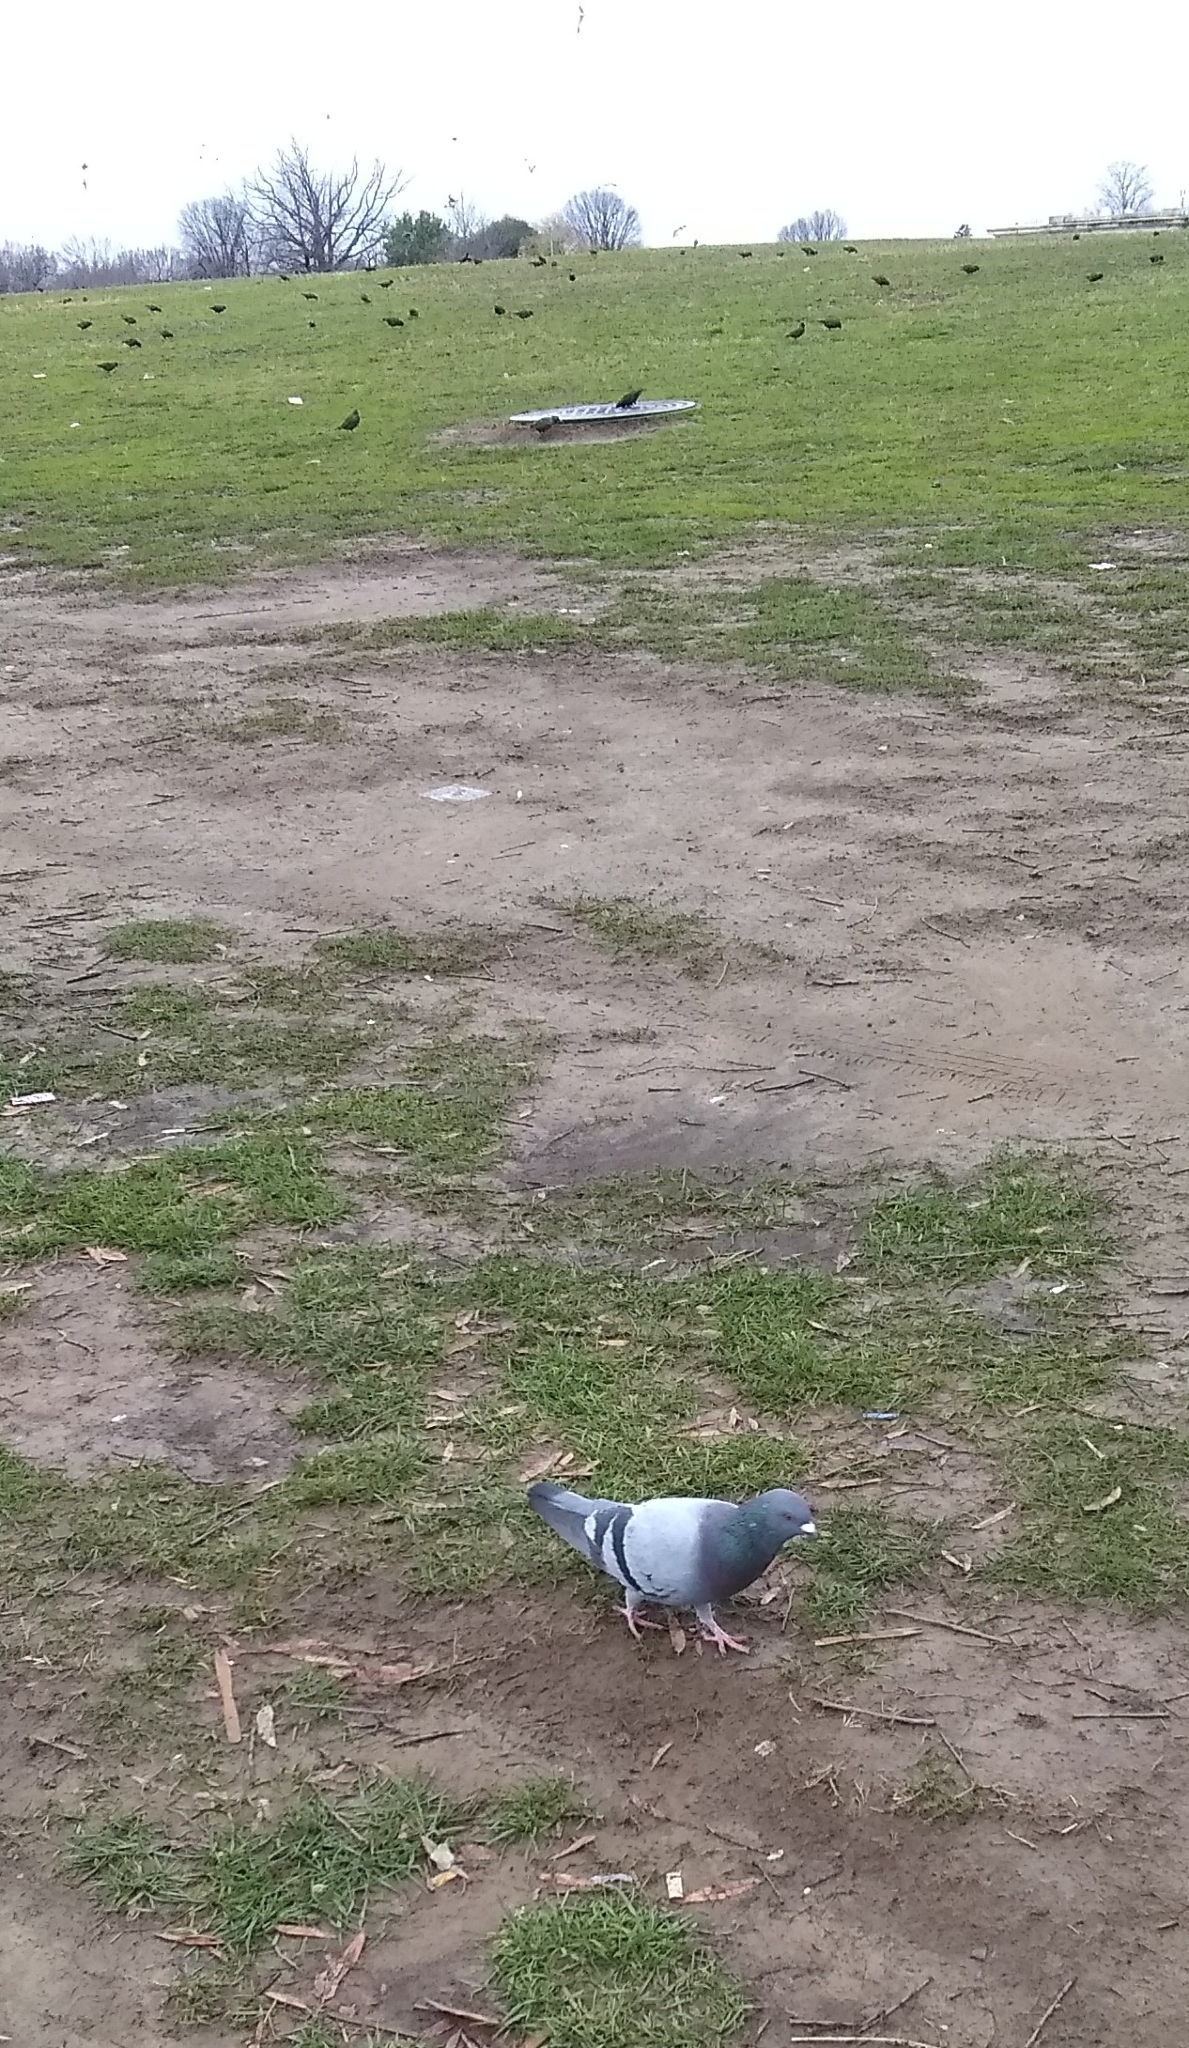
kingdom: Animalia
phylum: Chordata
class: Aves
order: Columbiformes
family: Columbidae
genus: Columba
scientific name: Columba livia
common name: Rock pigeon
